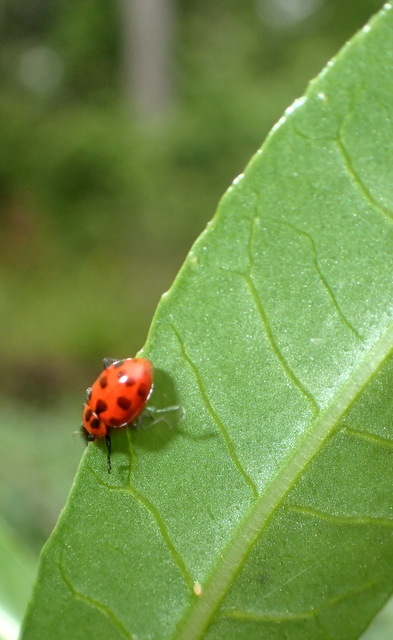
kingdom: Animalia
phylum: Arthropoda
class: Insecta
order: Coleoptera
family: Coccinellidae
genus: Coleomegilla
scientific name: Coleomegilla maculata
